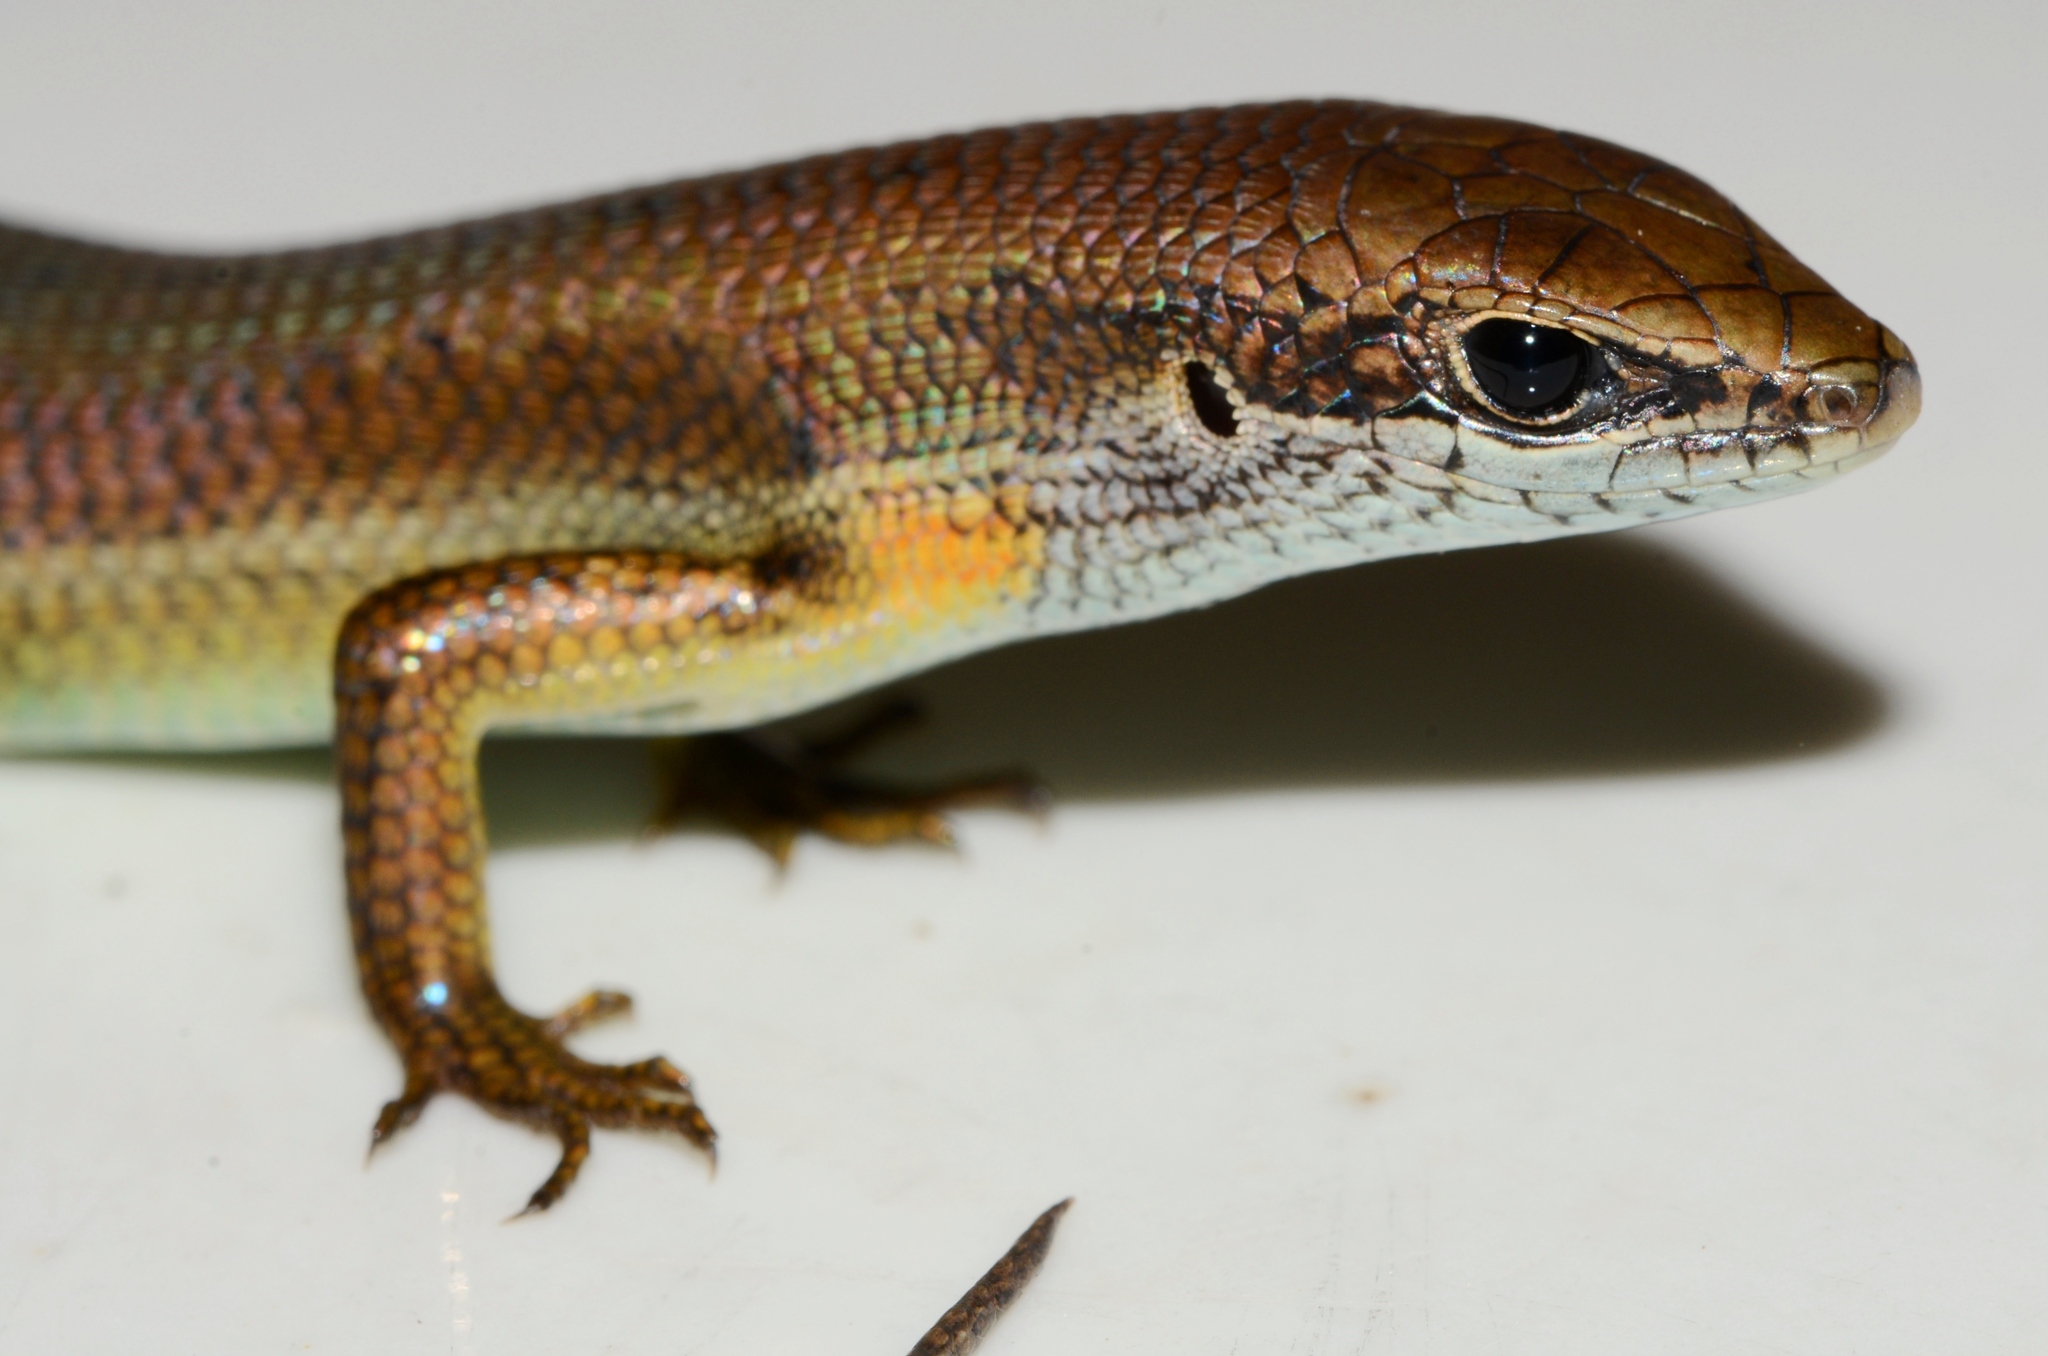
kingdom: Animalia
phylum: Chordata
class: Squamata
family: Scincidae
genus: Trachylepis
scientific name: Trachylepis albilabris
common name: Guinea mabuya
